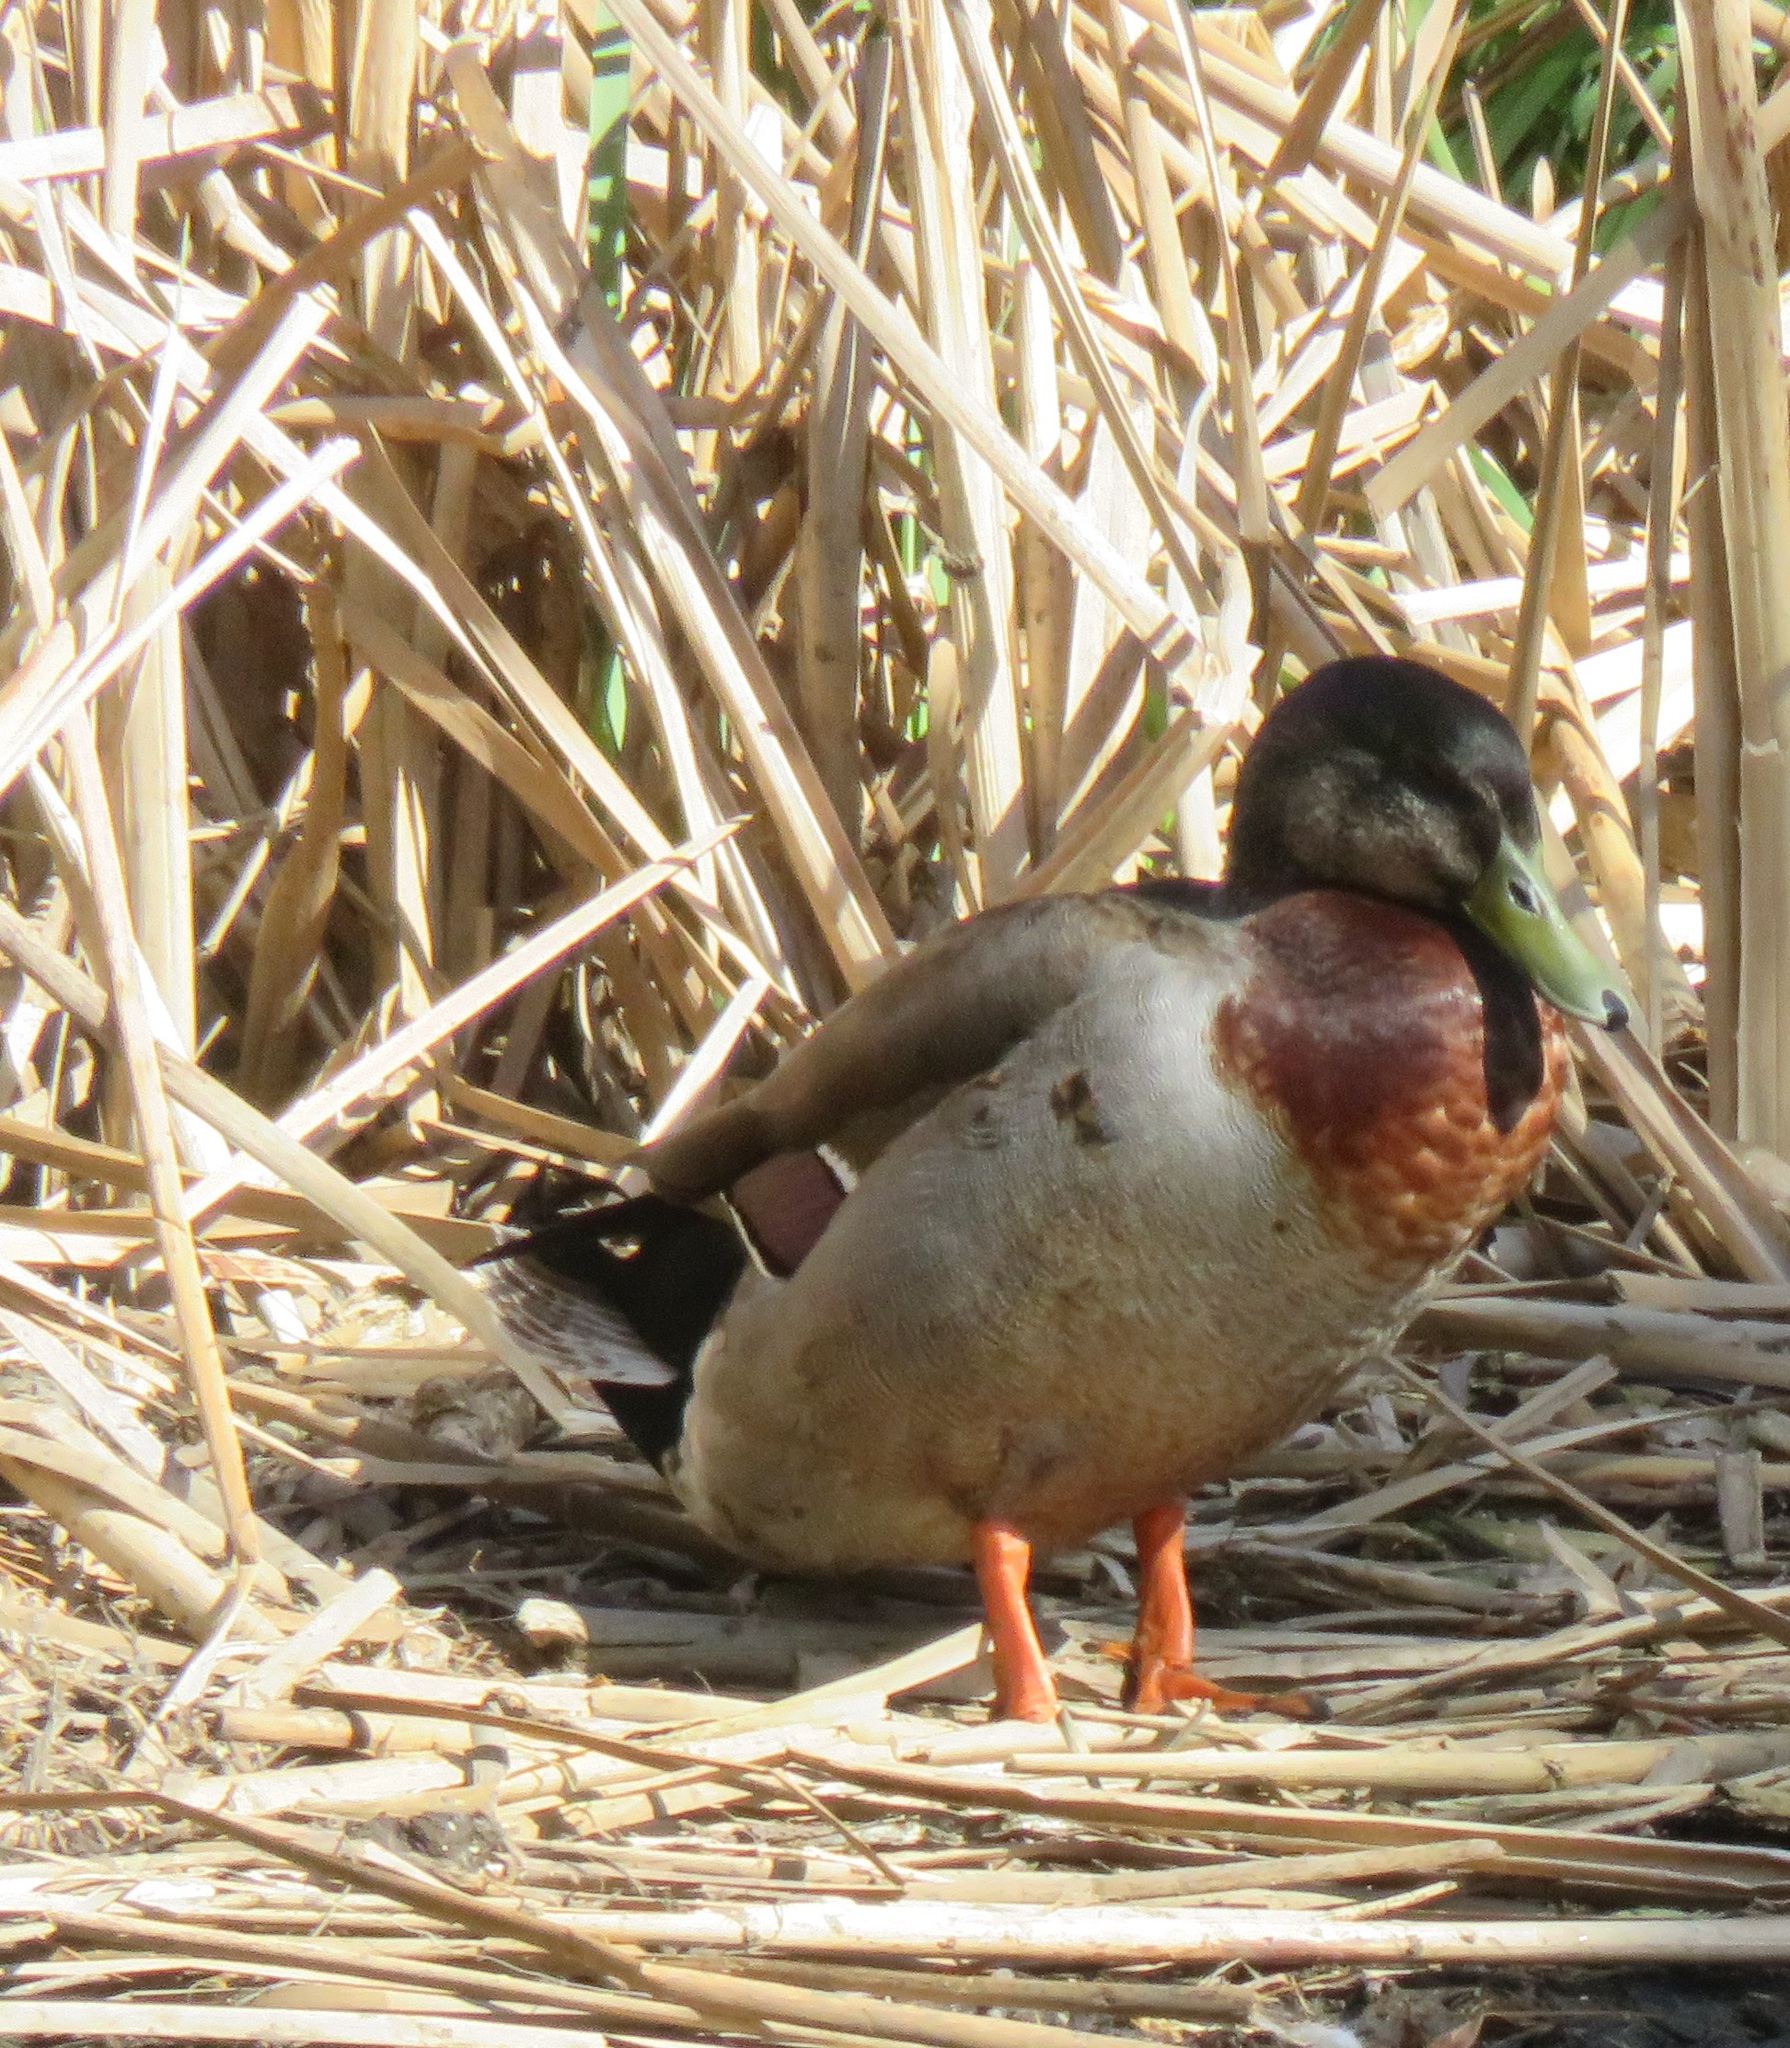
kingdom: Animalia
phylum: Chordata
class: Aves
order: Anseriformes
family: Anatidae
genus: Anas
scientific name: Anas platyrhynchos
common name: Mallard
